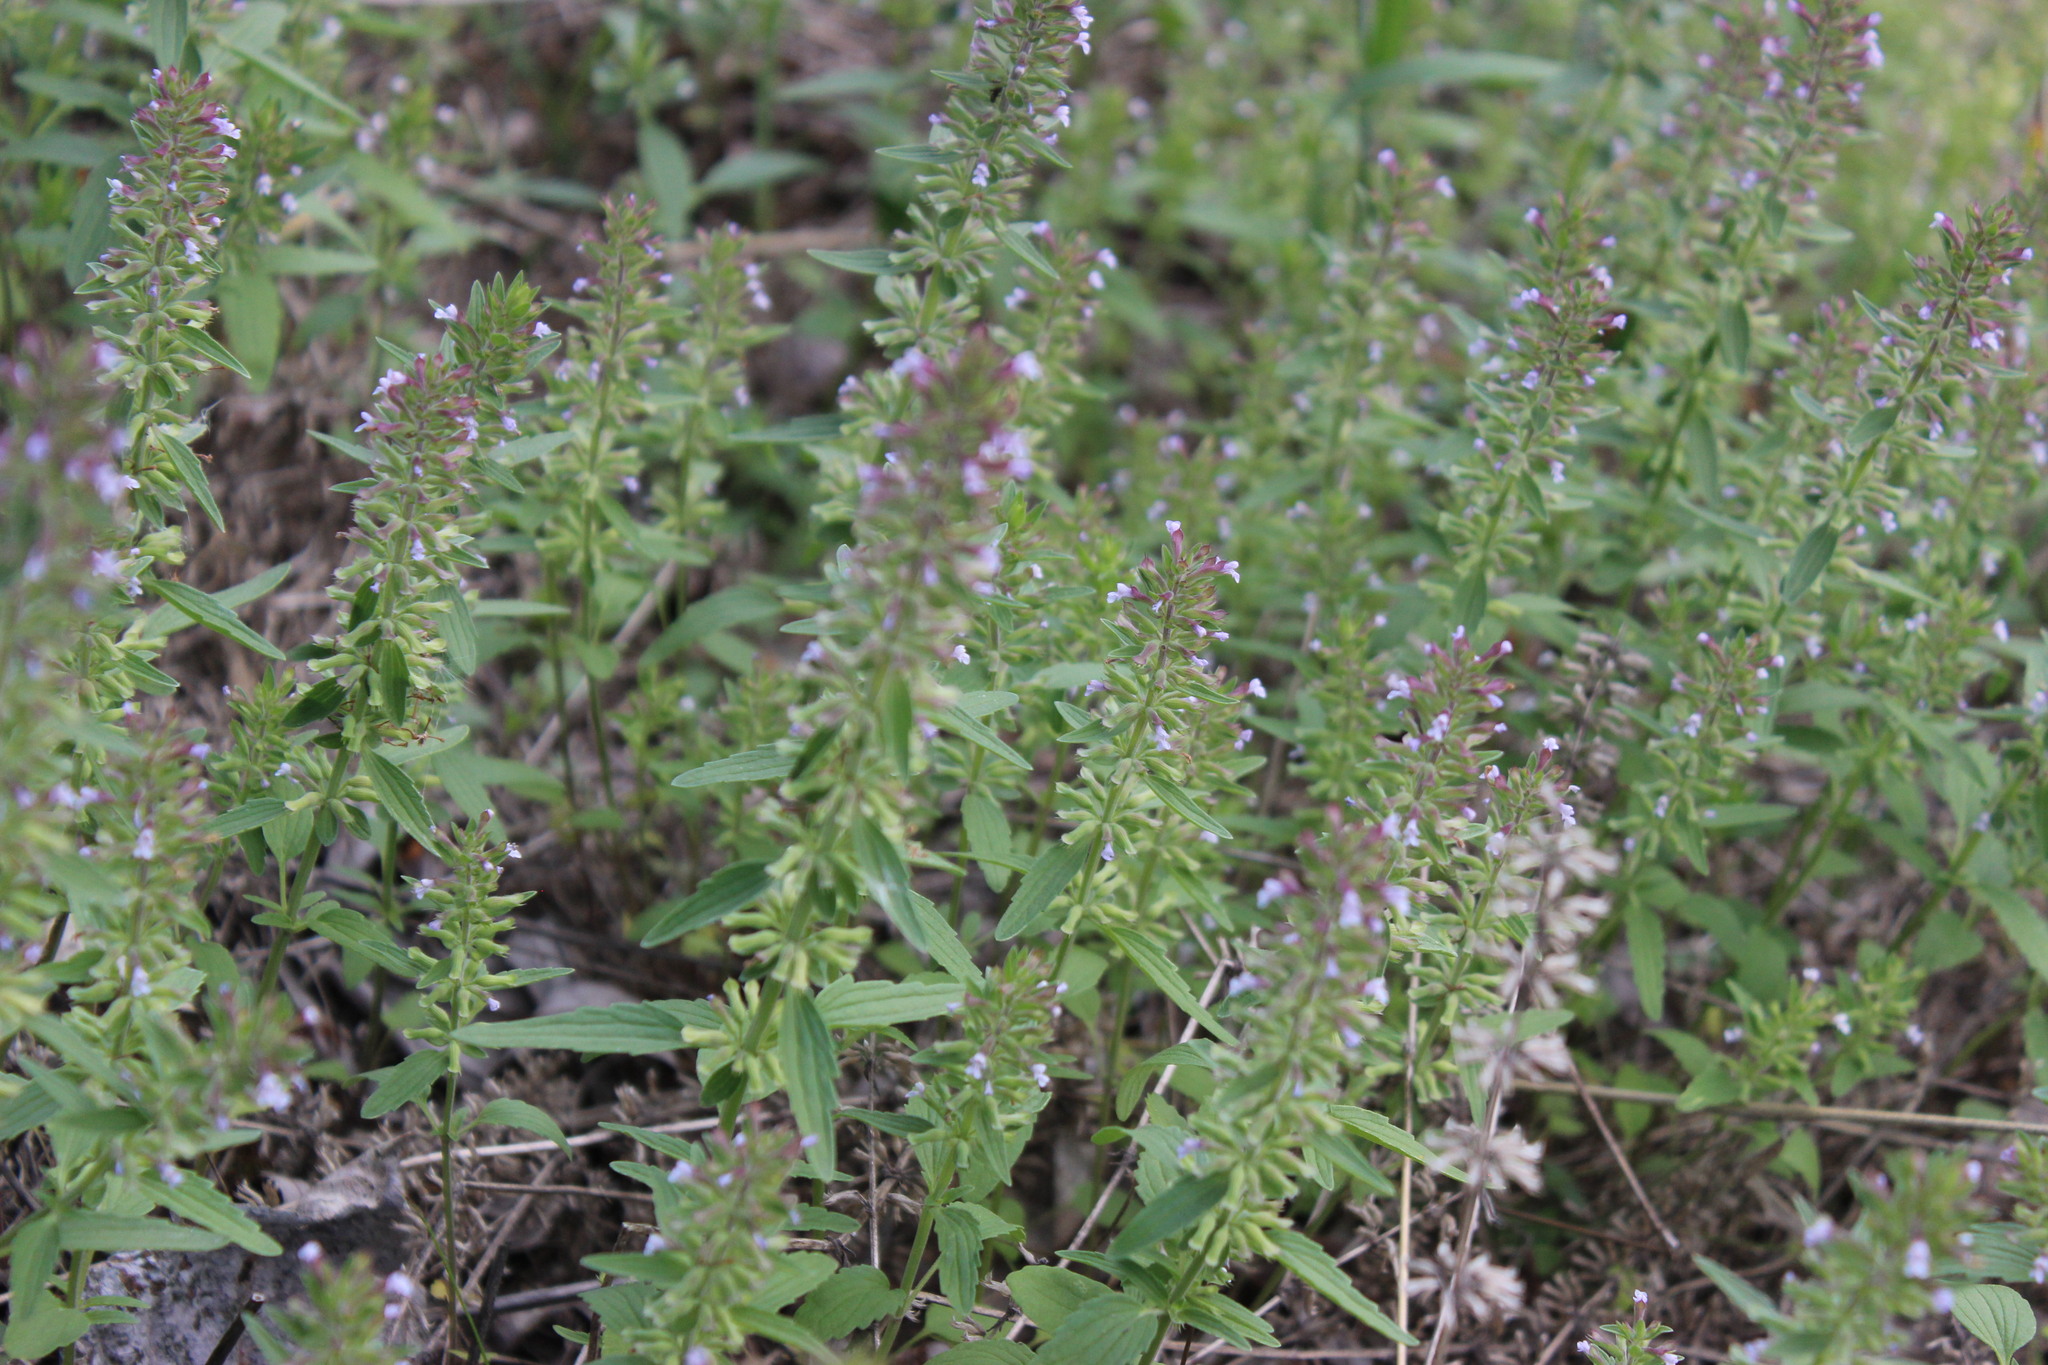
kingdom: Plantae
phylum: Tracheophyta
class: Magnoliopsida
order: Lamiales
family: Lamiaceae
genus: Dracocephalum
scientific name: Dracocephalum thymiflorum
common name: Thymeleaf dragonhead
